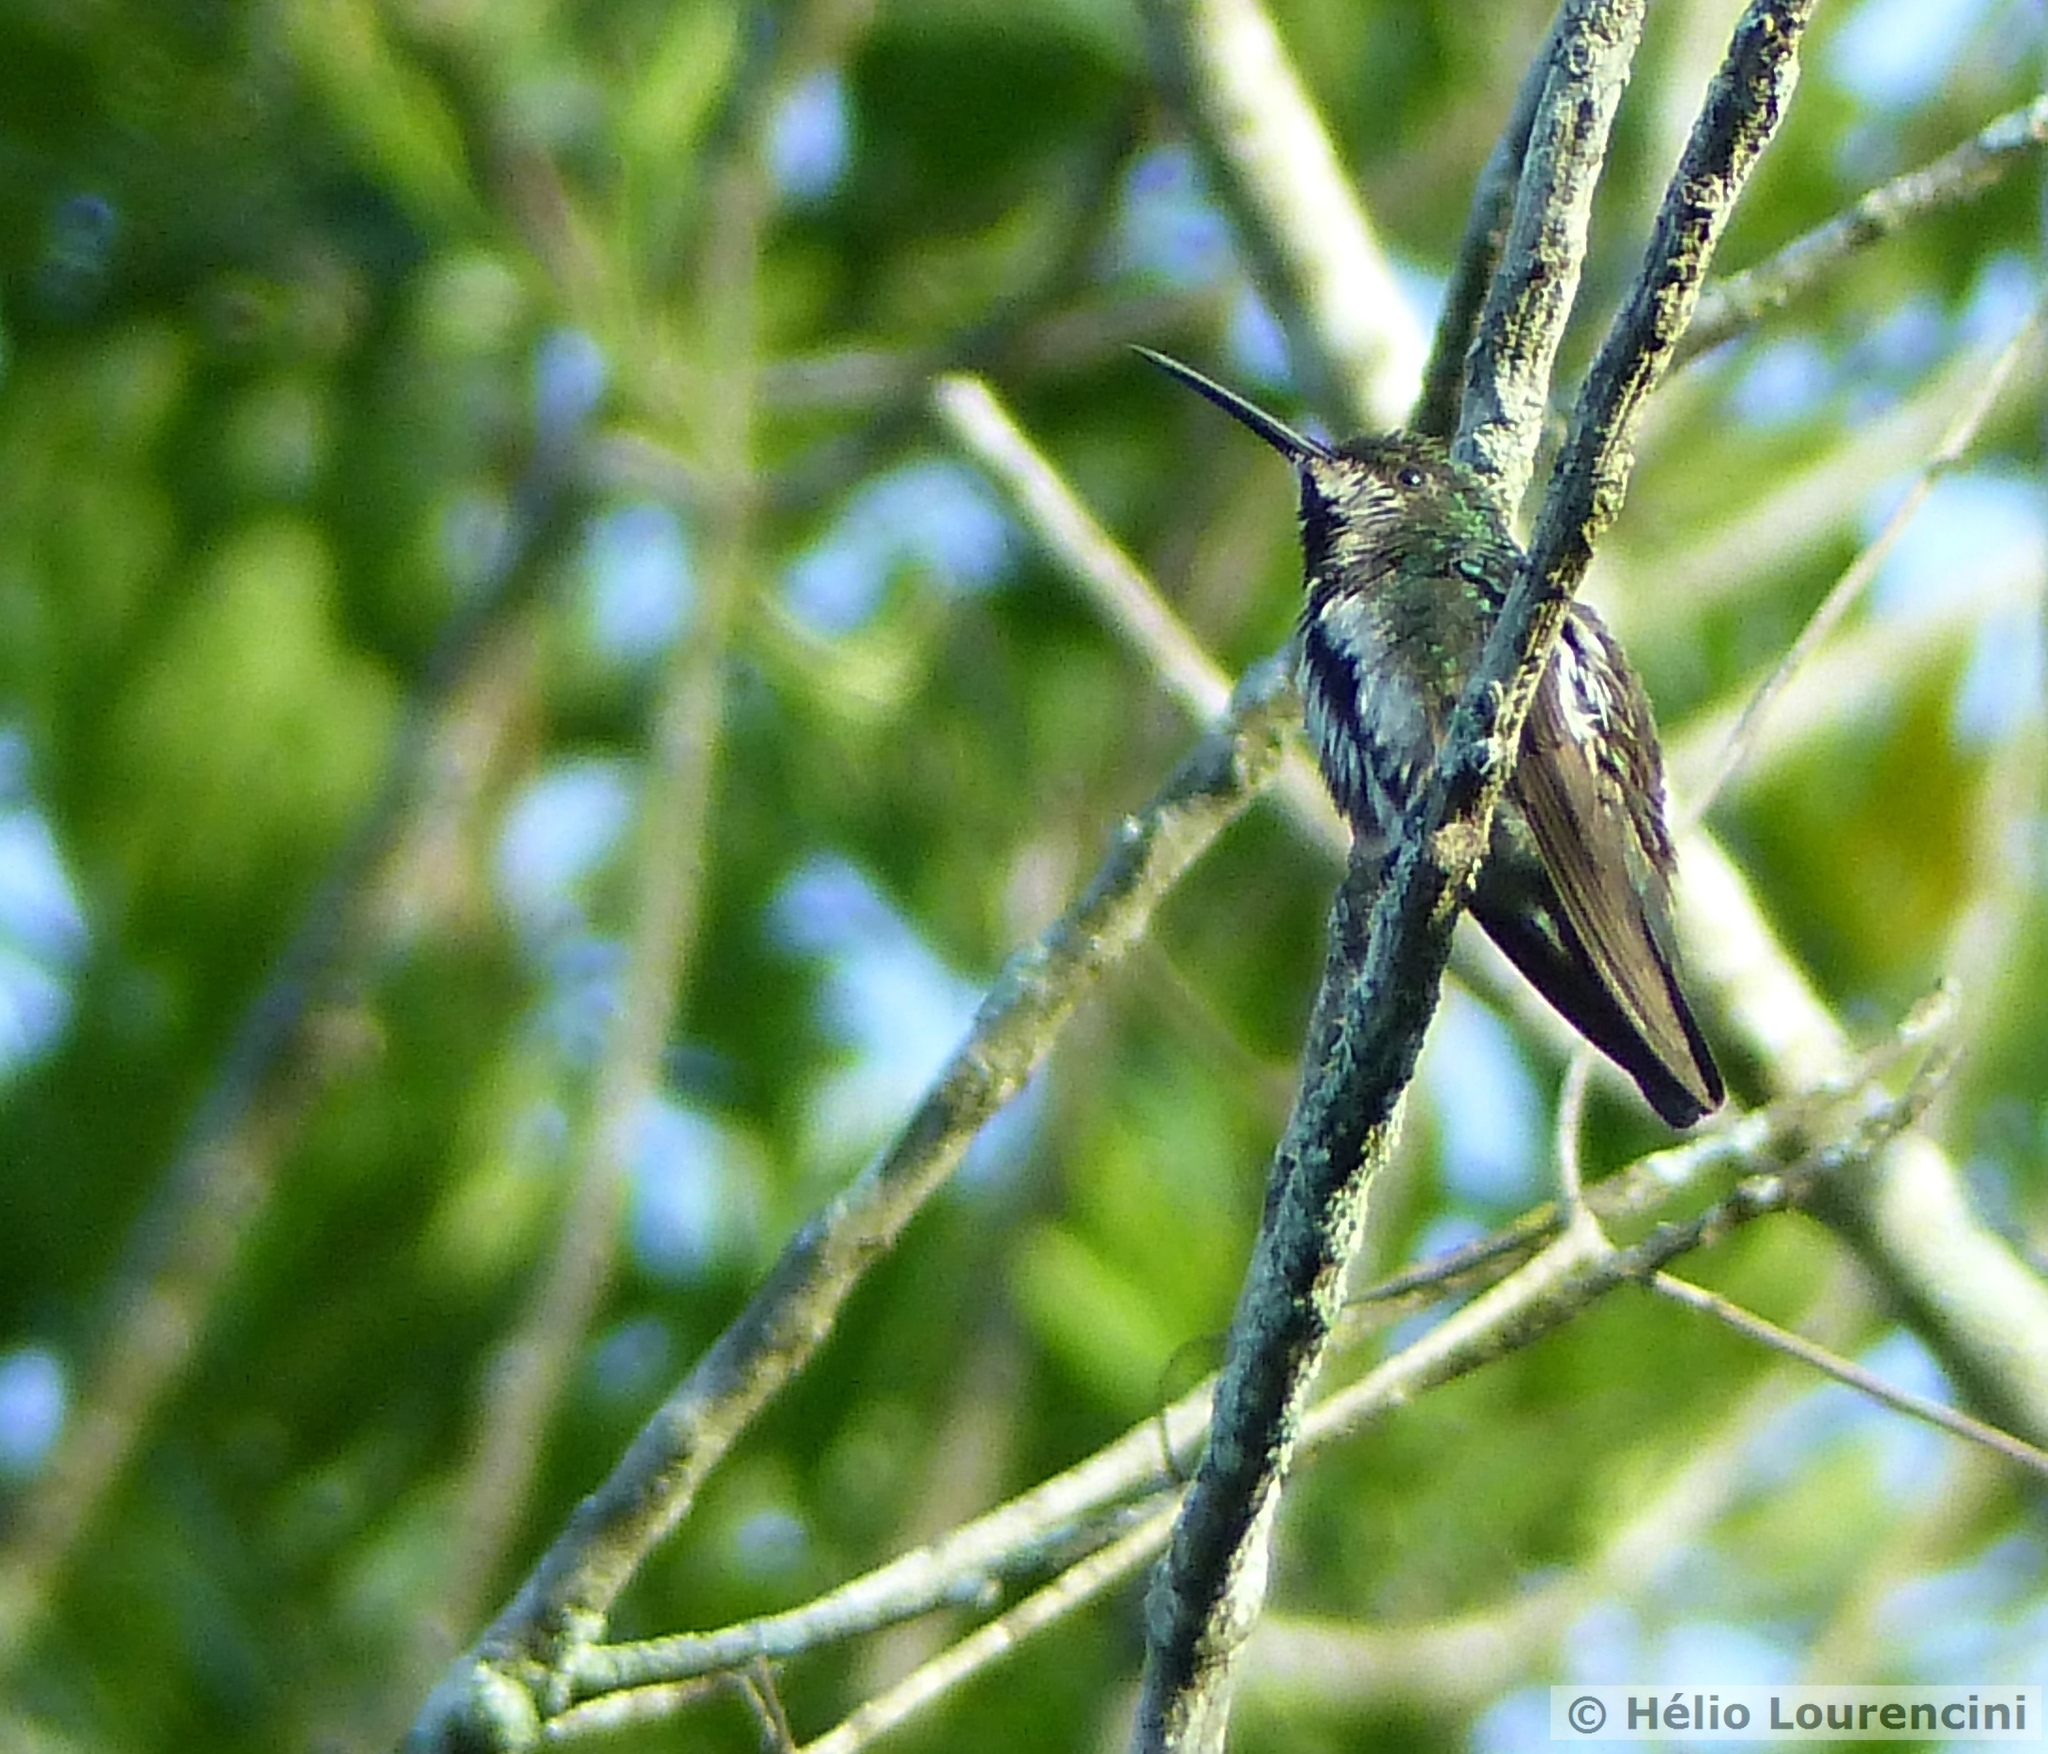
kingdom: Animalia
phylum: Chordata
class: Aves
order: Apodiformes
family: Trochilidae
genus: Anthracothorax
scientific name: Anthracothorax nigricollis
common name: Black-throated mango
